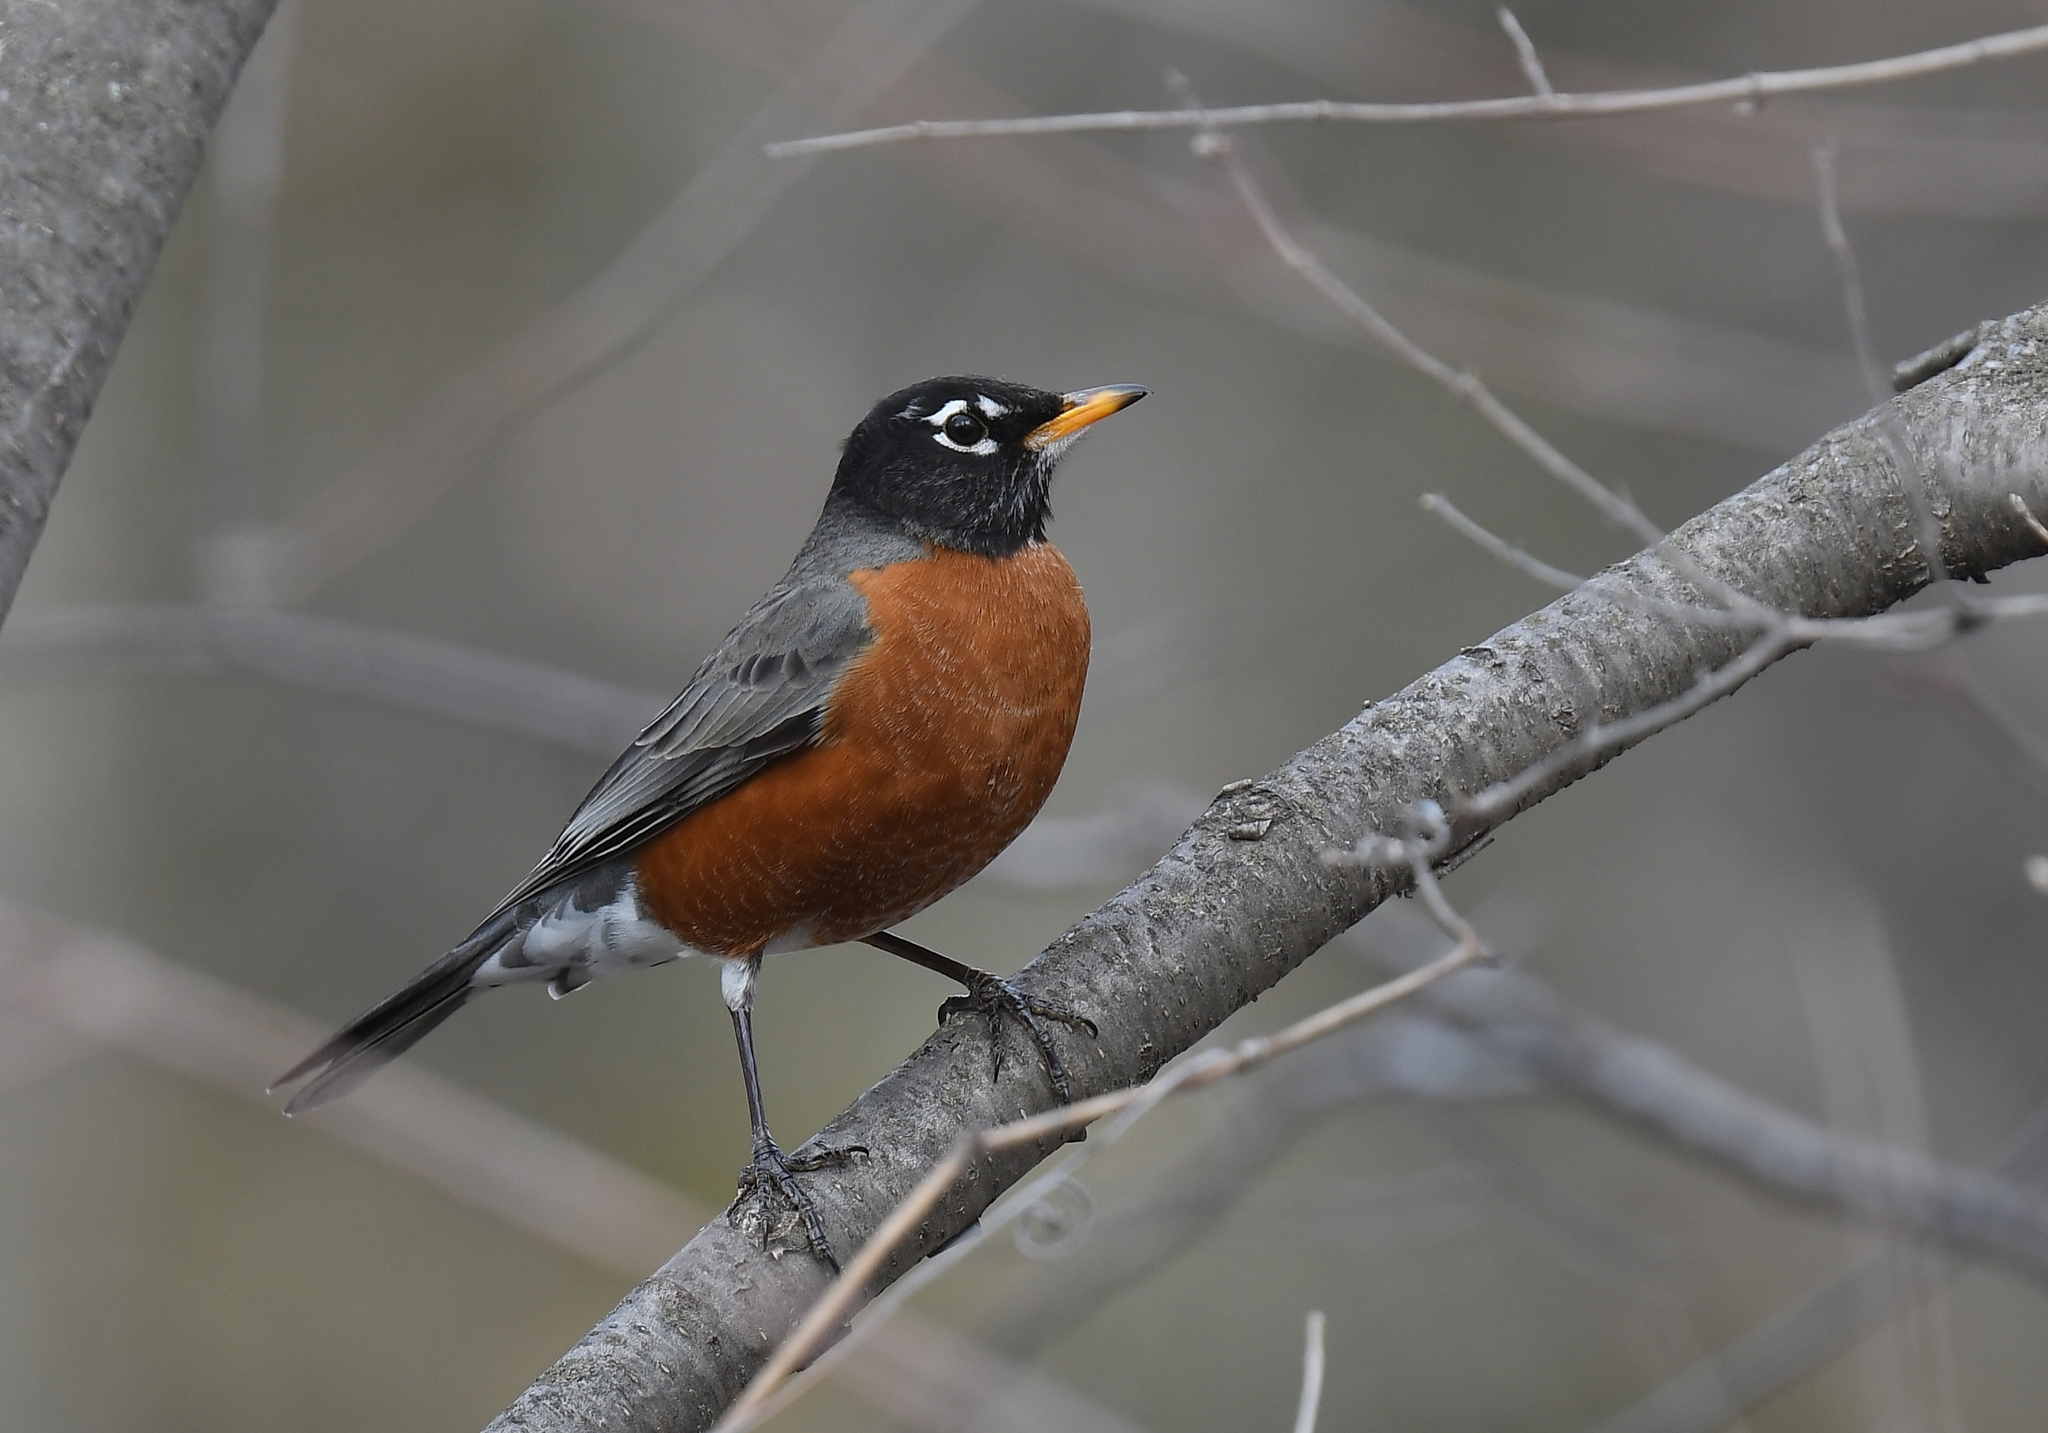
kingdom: Animalia
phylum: Chordata
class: Aves
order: Passeriformes
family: Turdidae
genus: Turdus
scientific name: Turdus migratorius
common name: American robin
